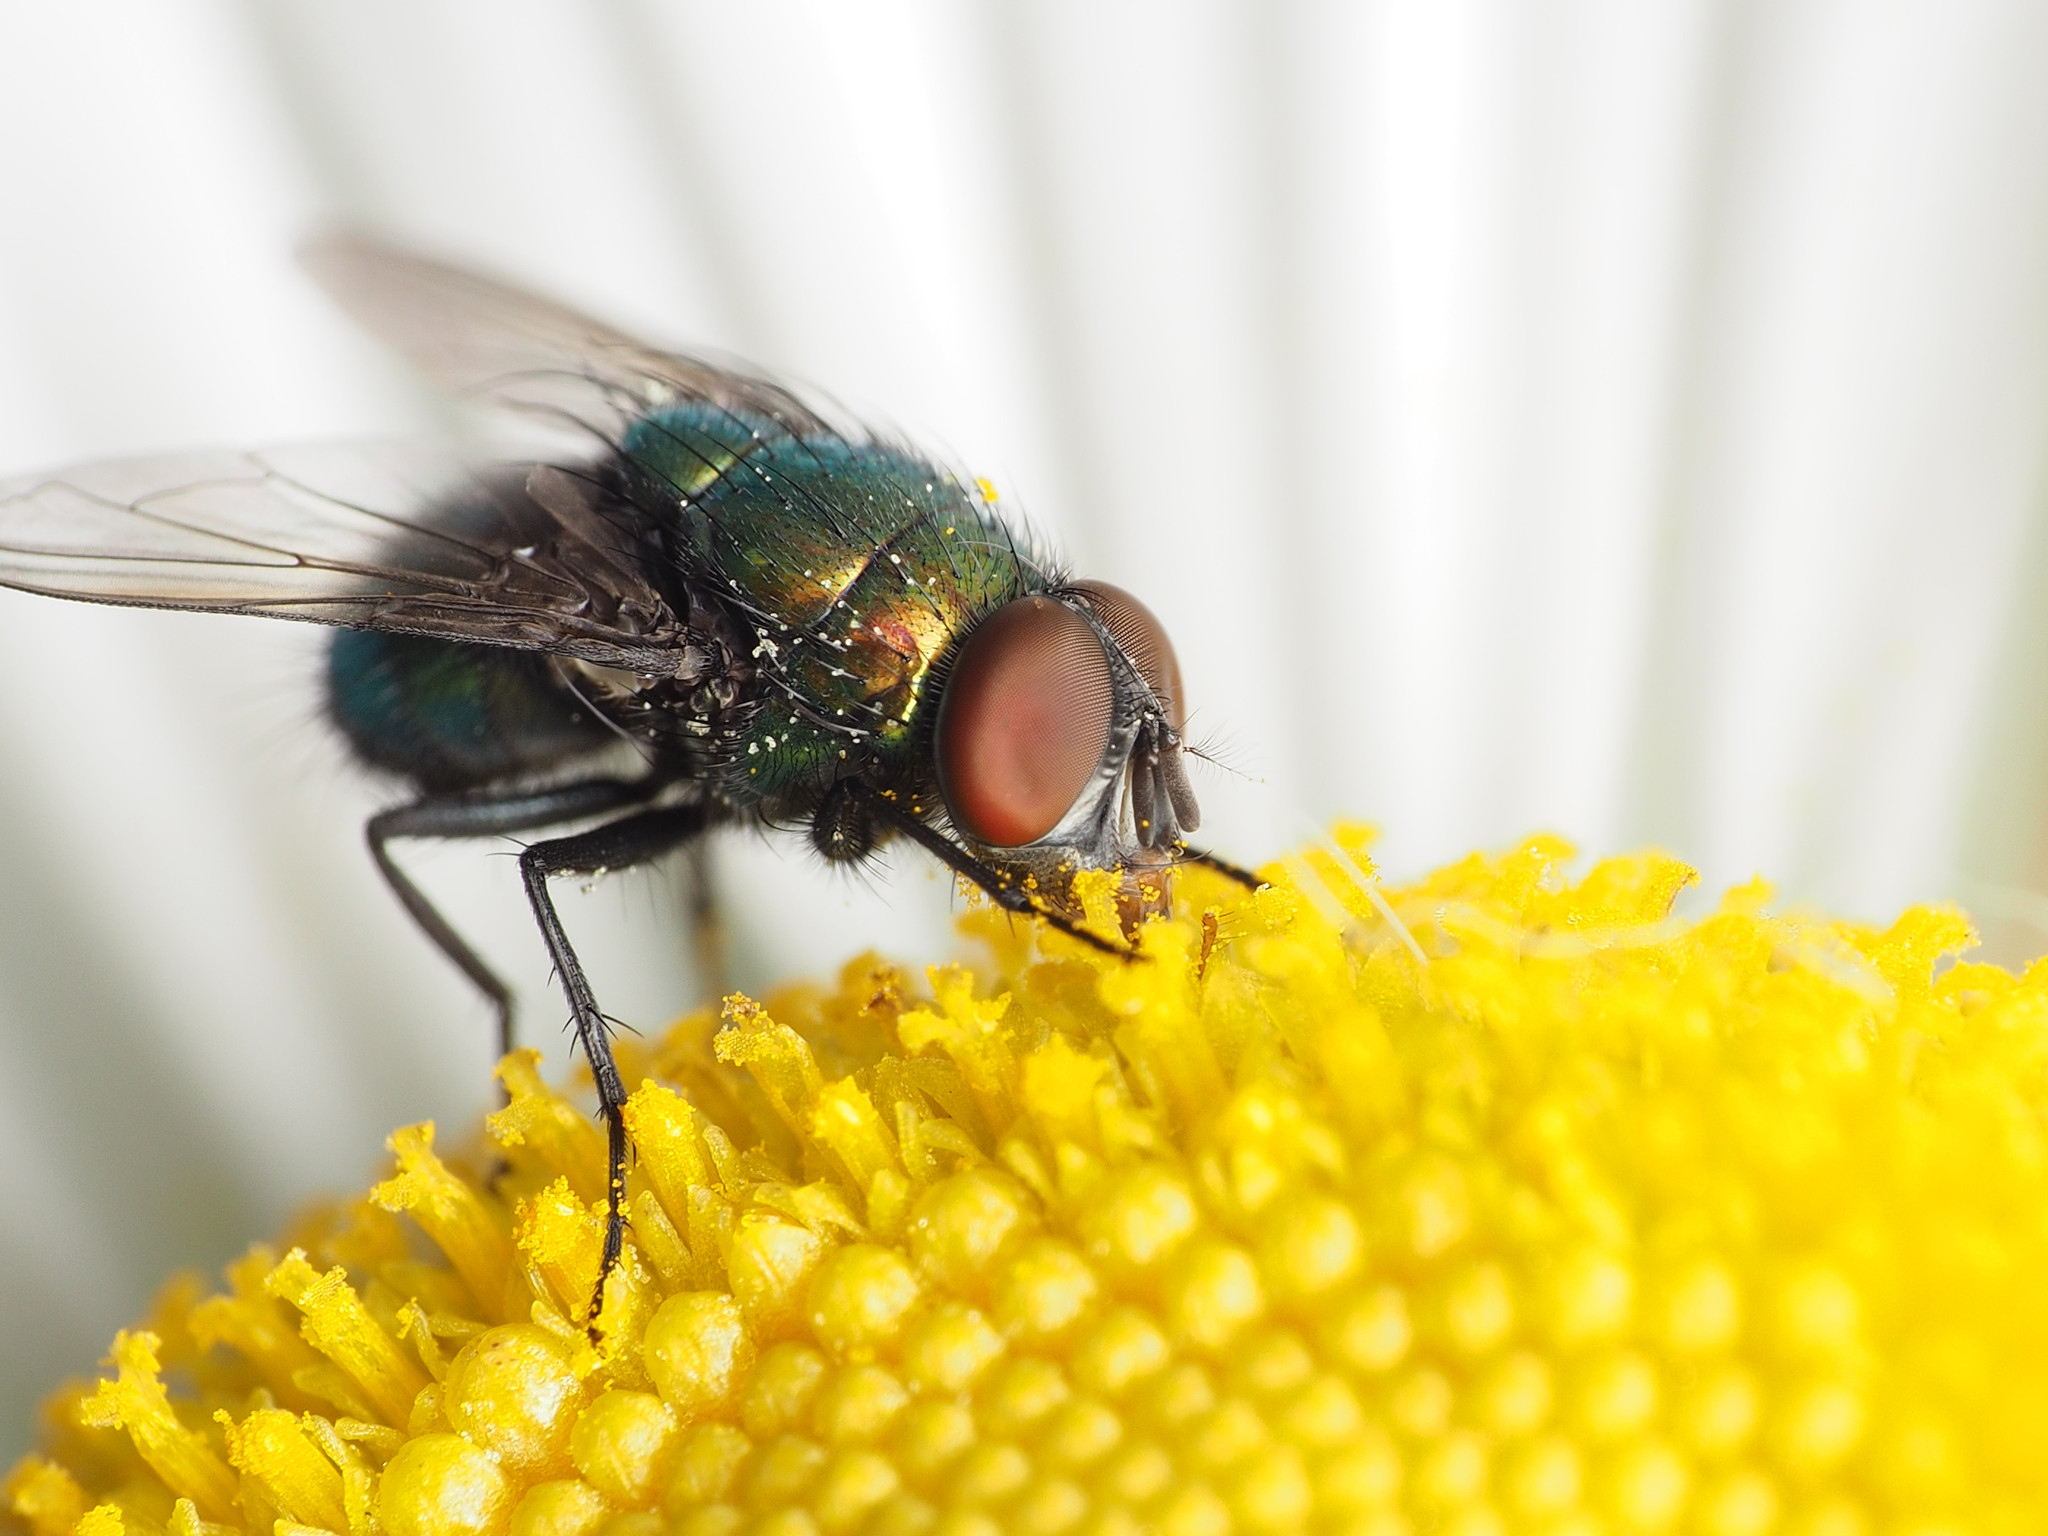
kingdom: Animalia
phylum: Arthropoda
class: Insecta
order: Diptera
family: Calliphoridae
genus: Lucilia
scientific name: Lucilia illustris
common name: Illustrious greenbottle
